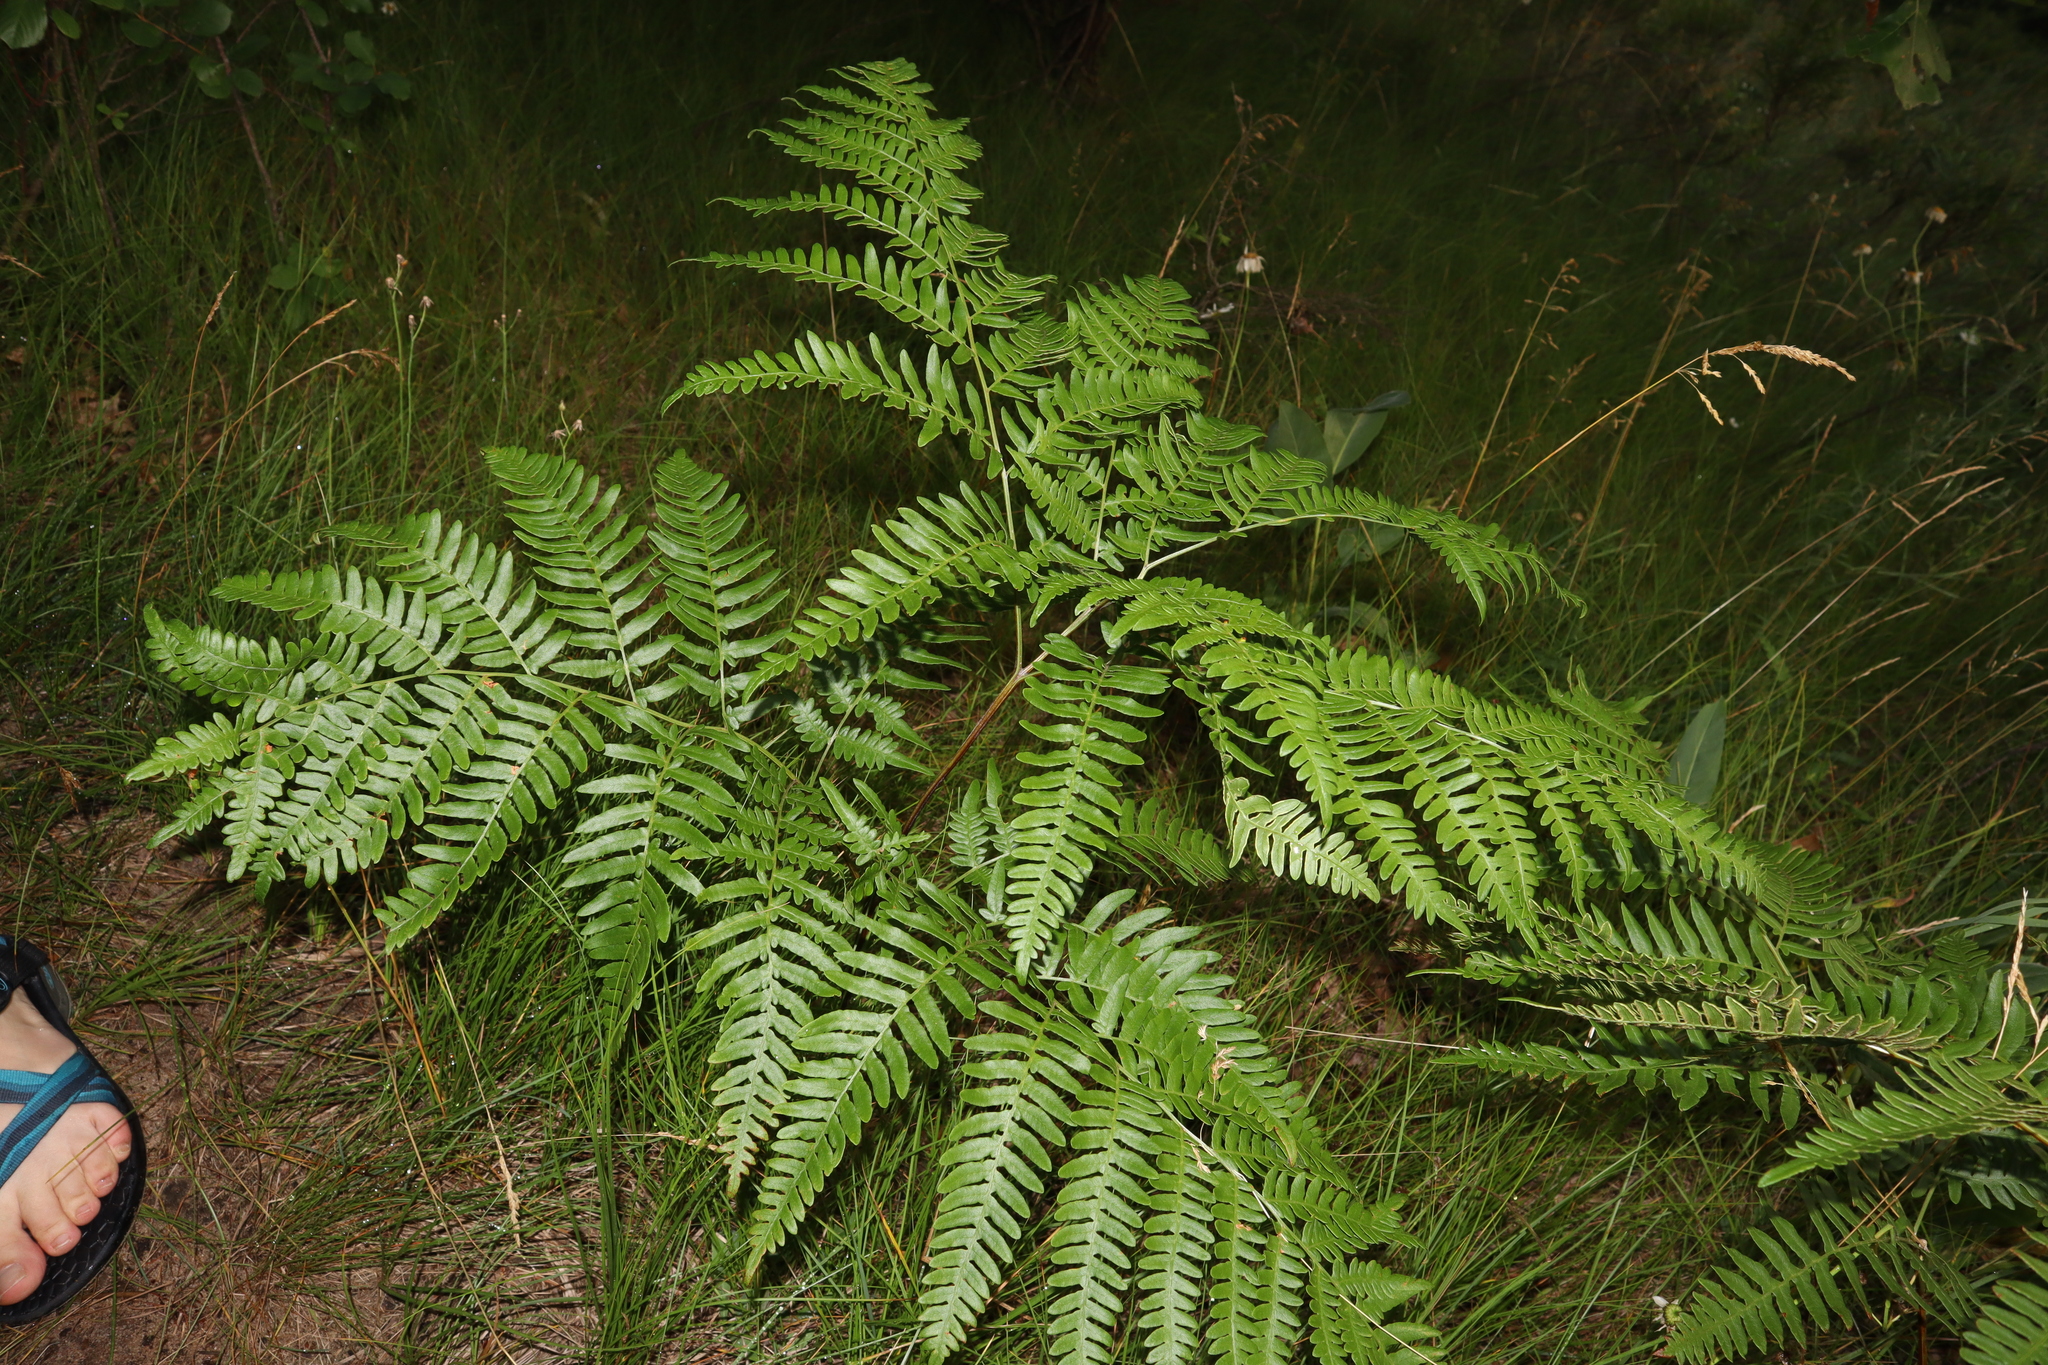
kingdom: Plantae
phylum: Tracheophyta
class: Polypodiopsida
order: Polypodiales
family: Dennstaedtiaceae
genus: Pteridium
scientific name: Pteridium aquilinum
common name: Bracken
